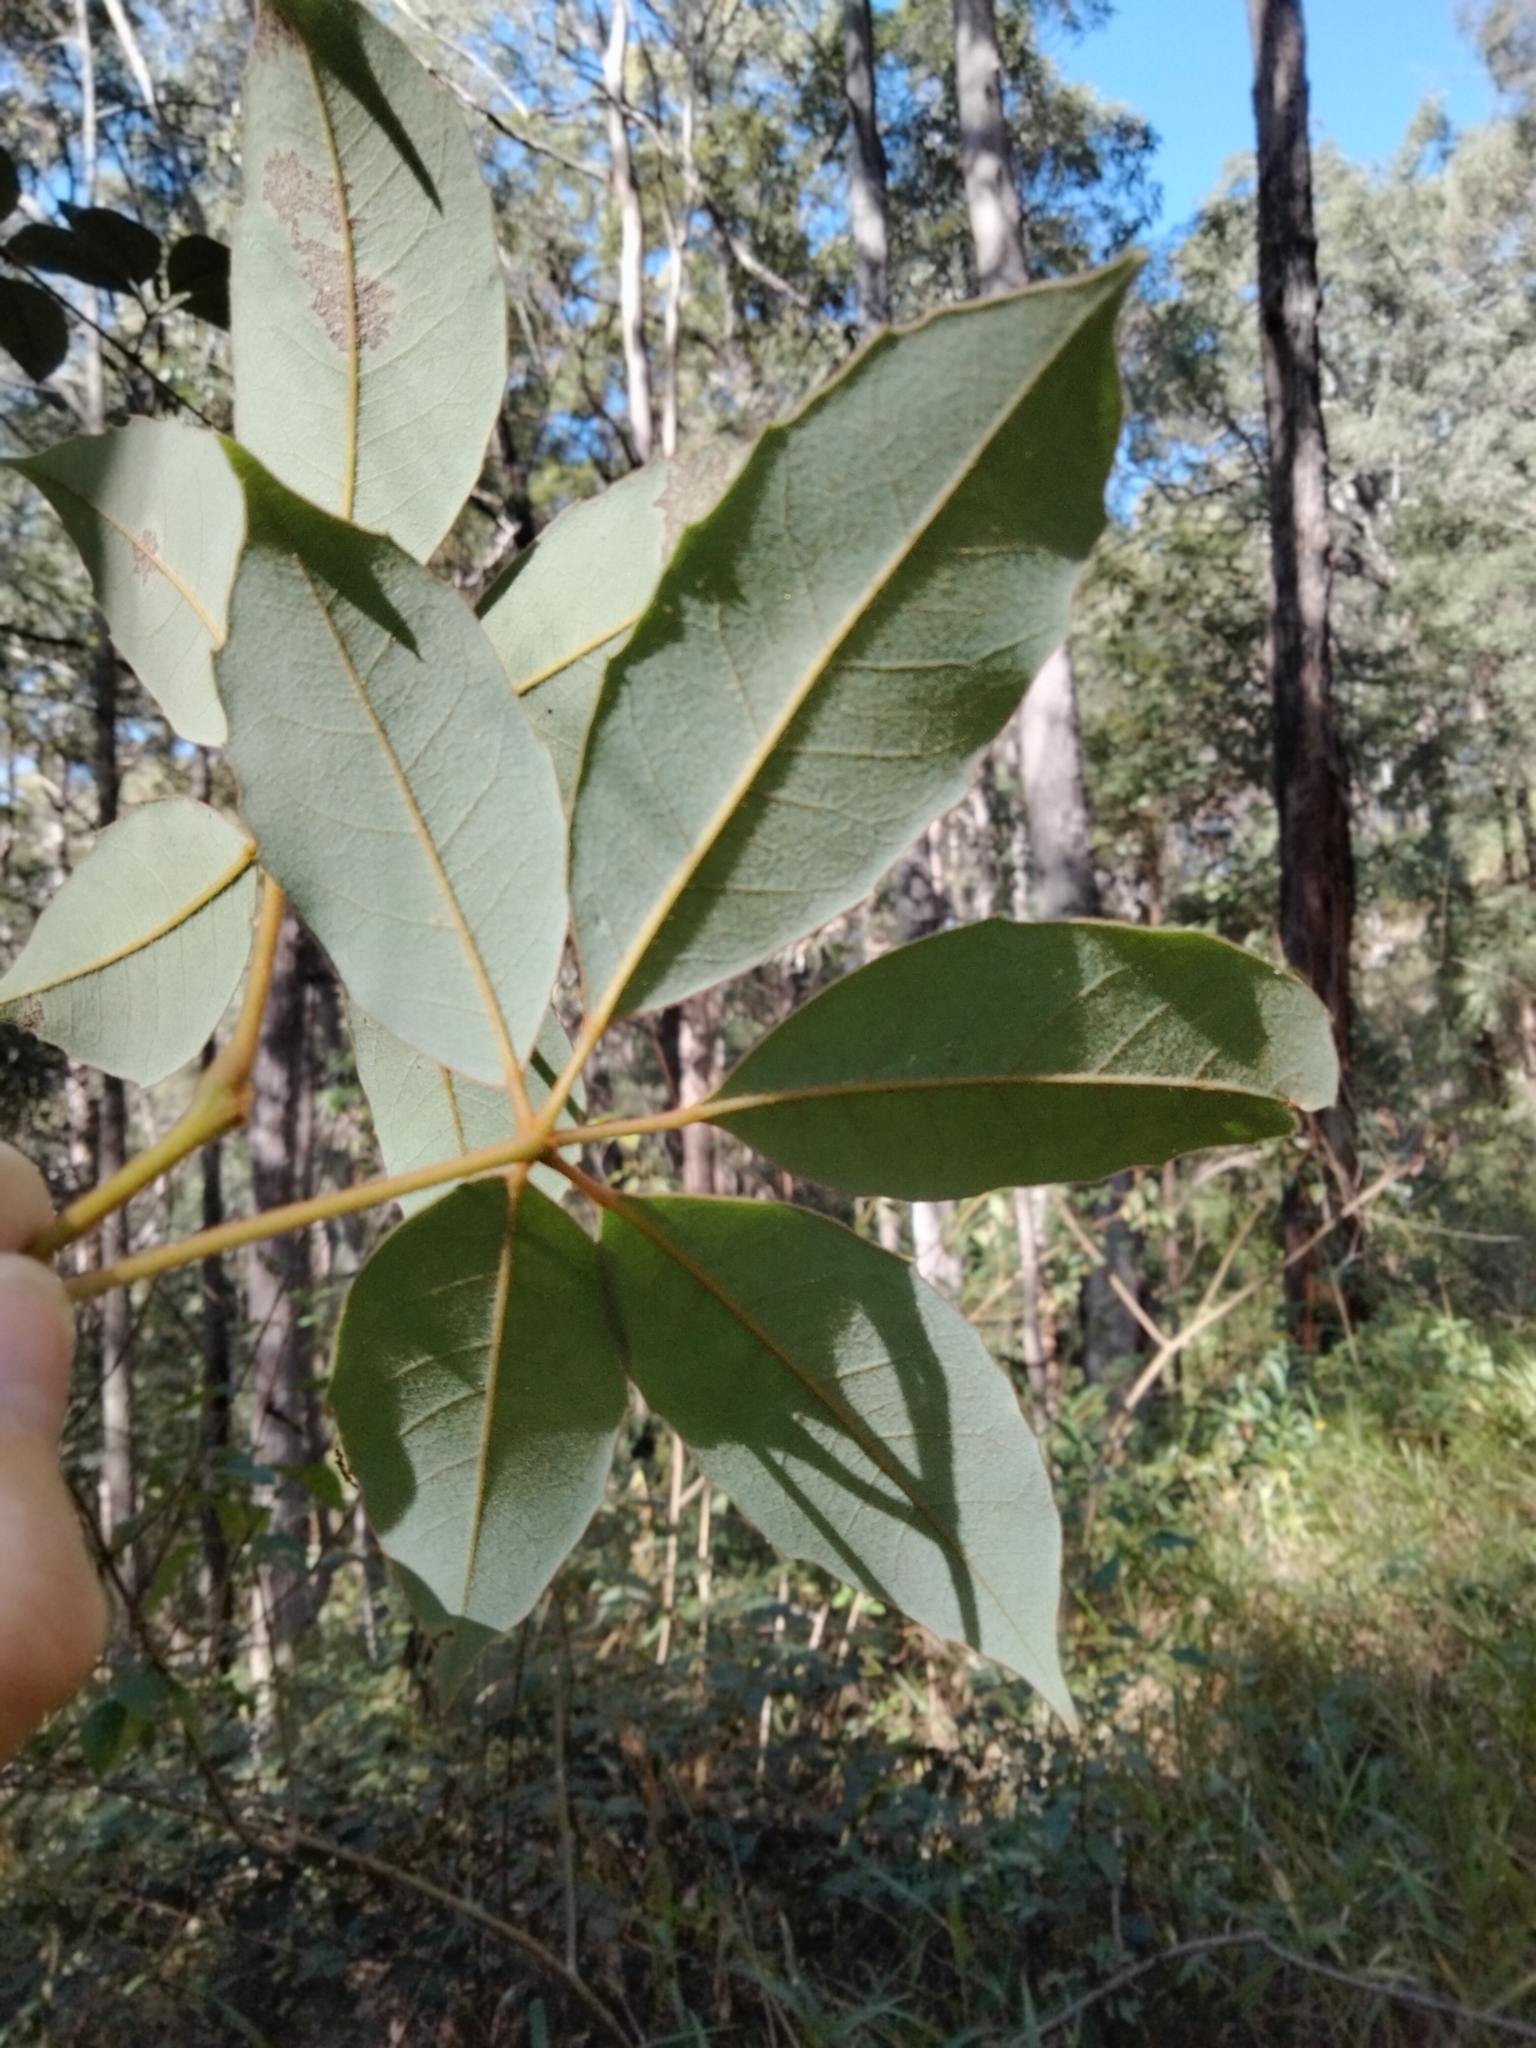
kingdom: Plantae
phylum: Tracheophyta
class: Magnoliopsida
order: Vitales
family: Vitaceae
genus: Nothocissus
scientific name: Nothocissus hypoglauca
